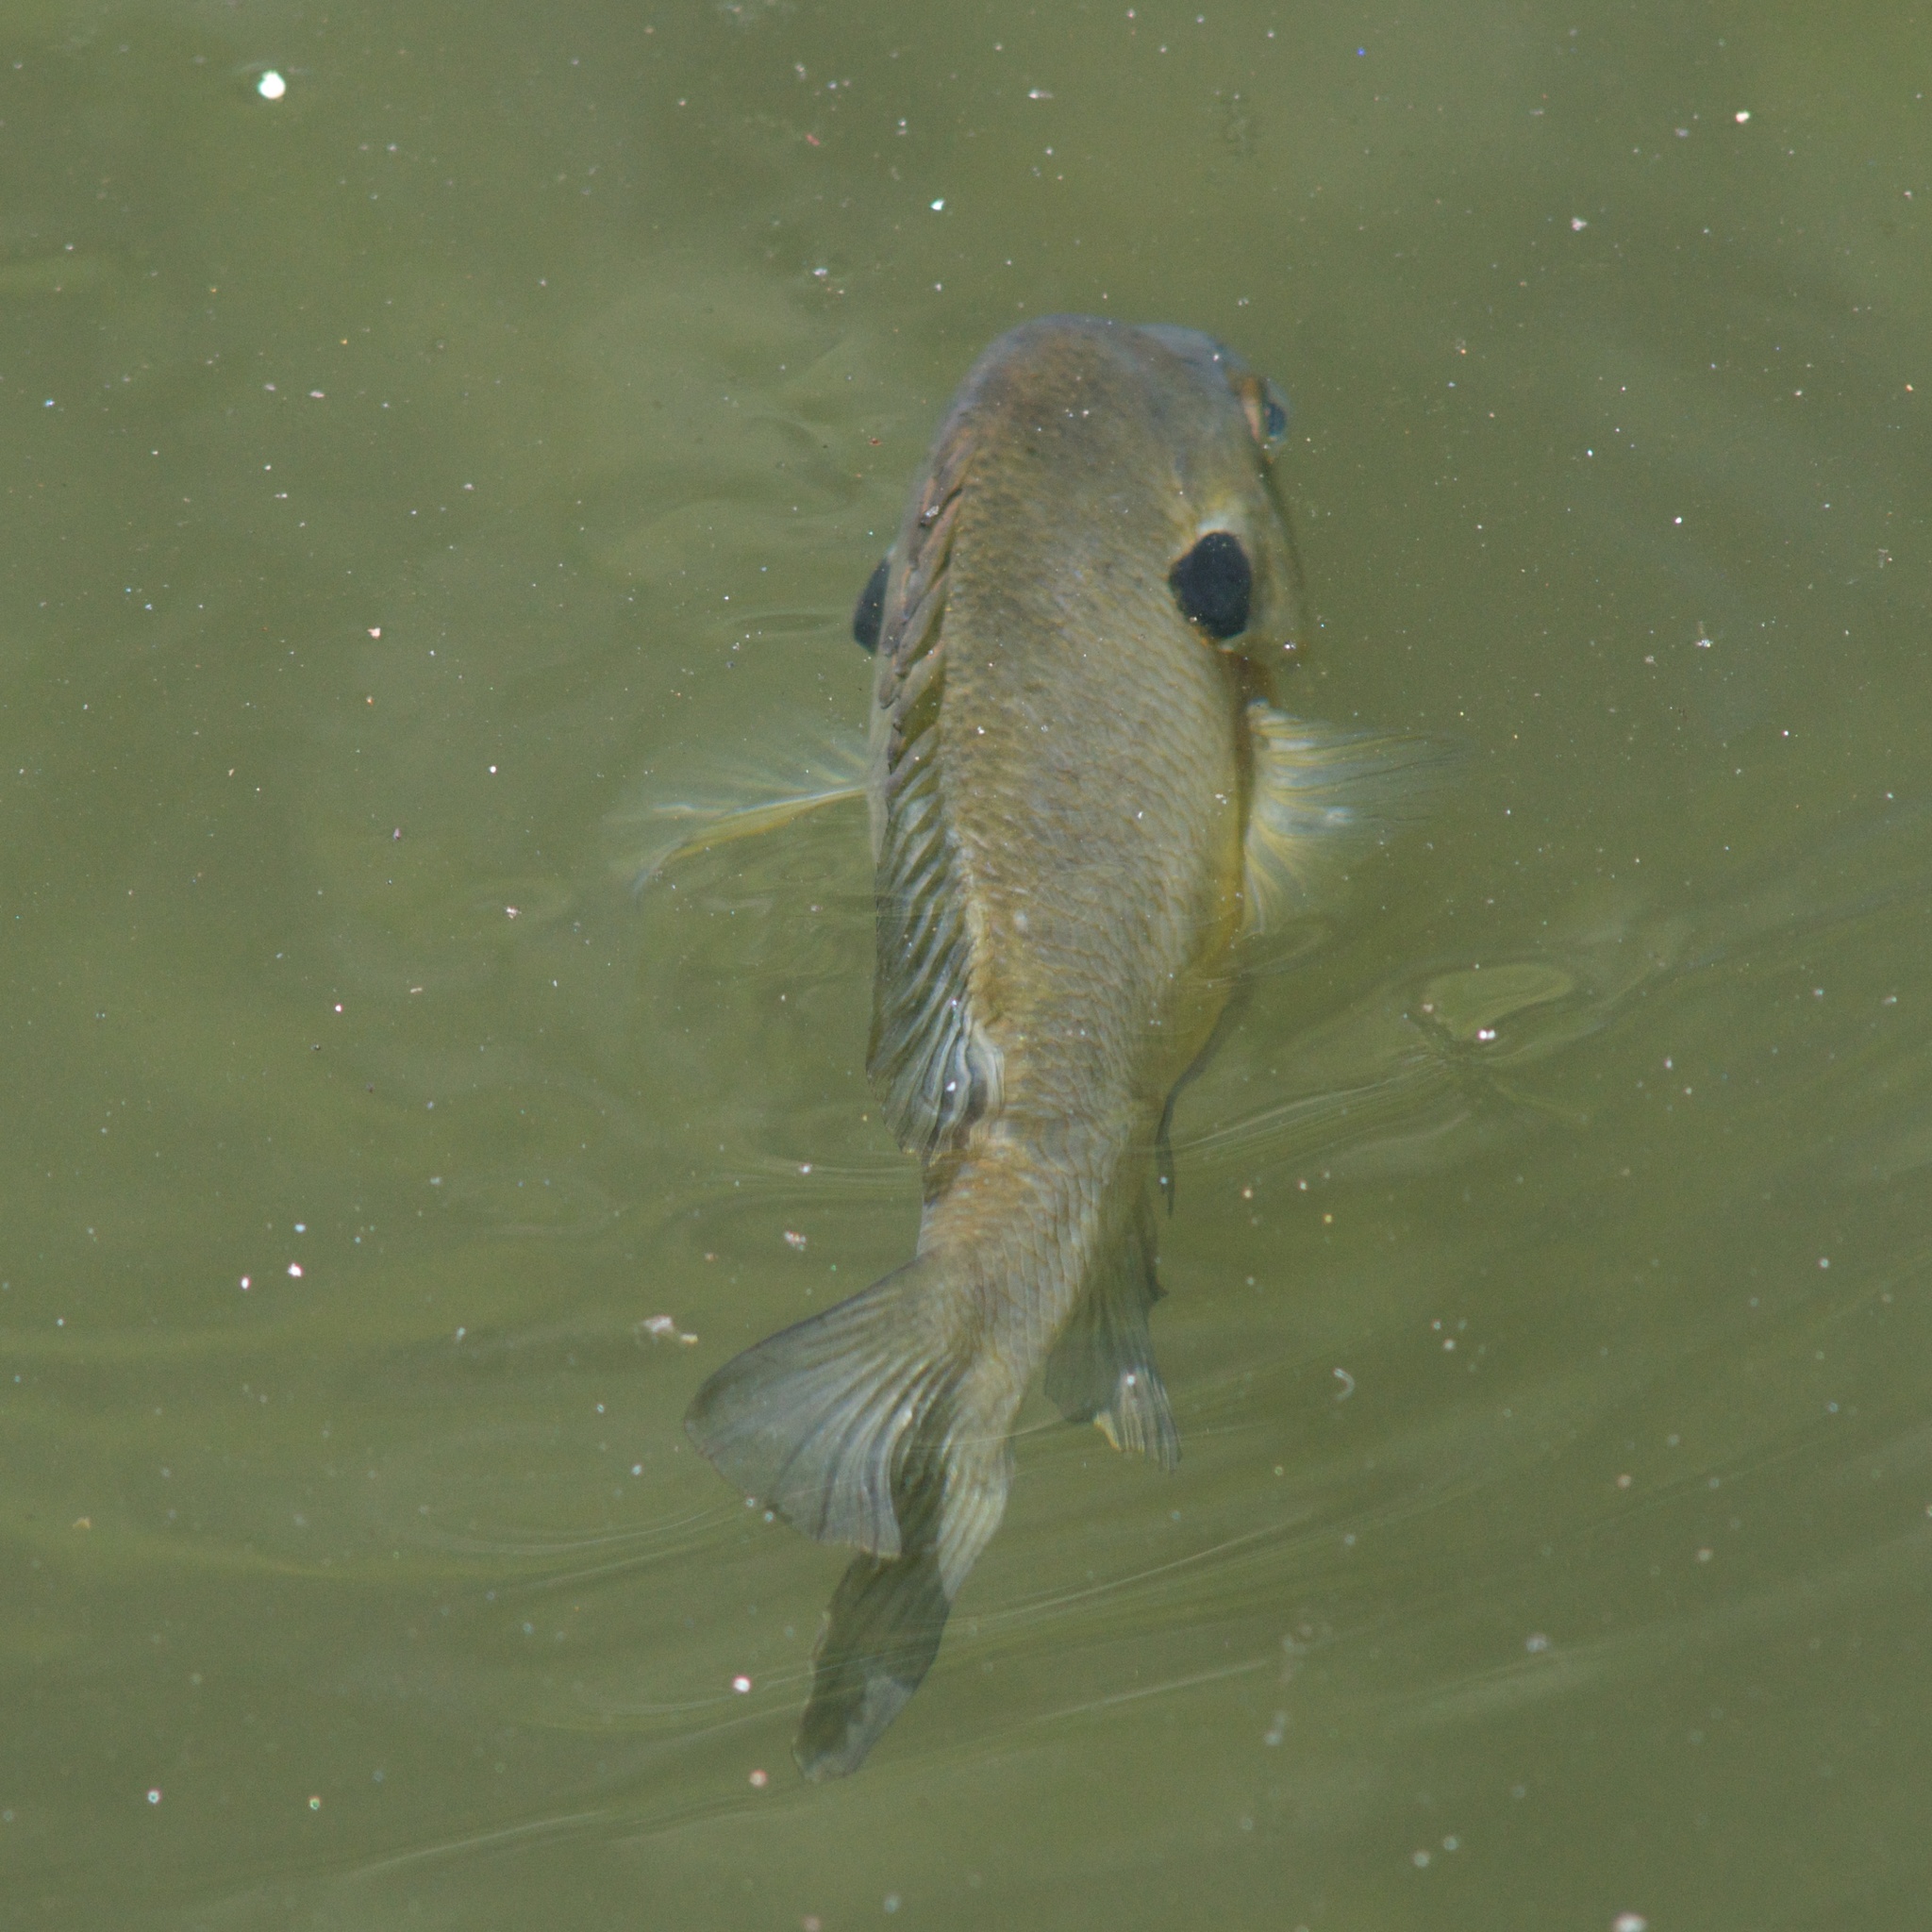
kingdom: Animalia
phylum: Chordata
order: Perciformes
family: Centrarchidae
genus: Lepomis
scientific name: Lepomis macrochirus
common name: Bluegill
